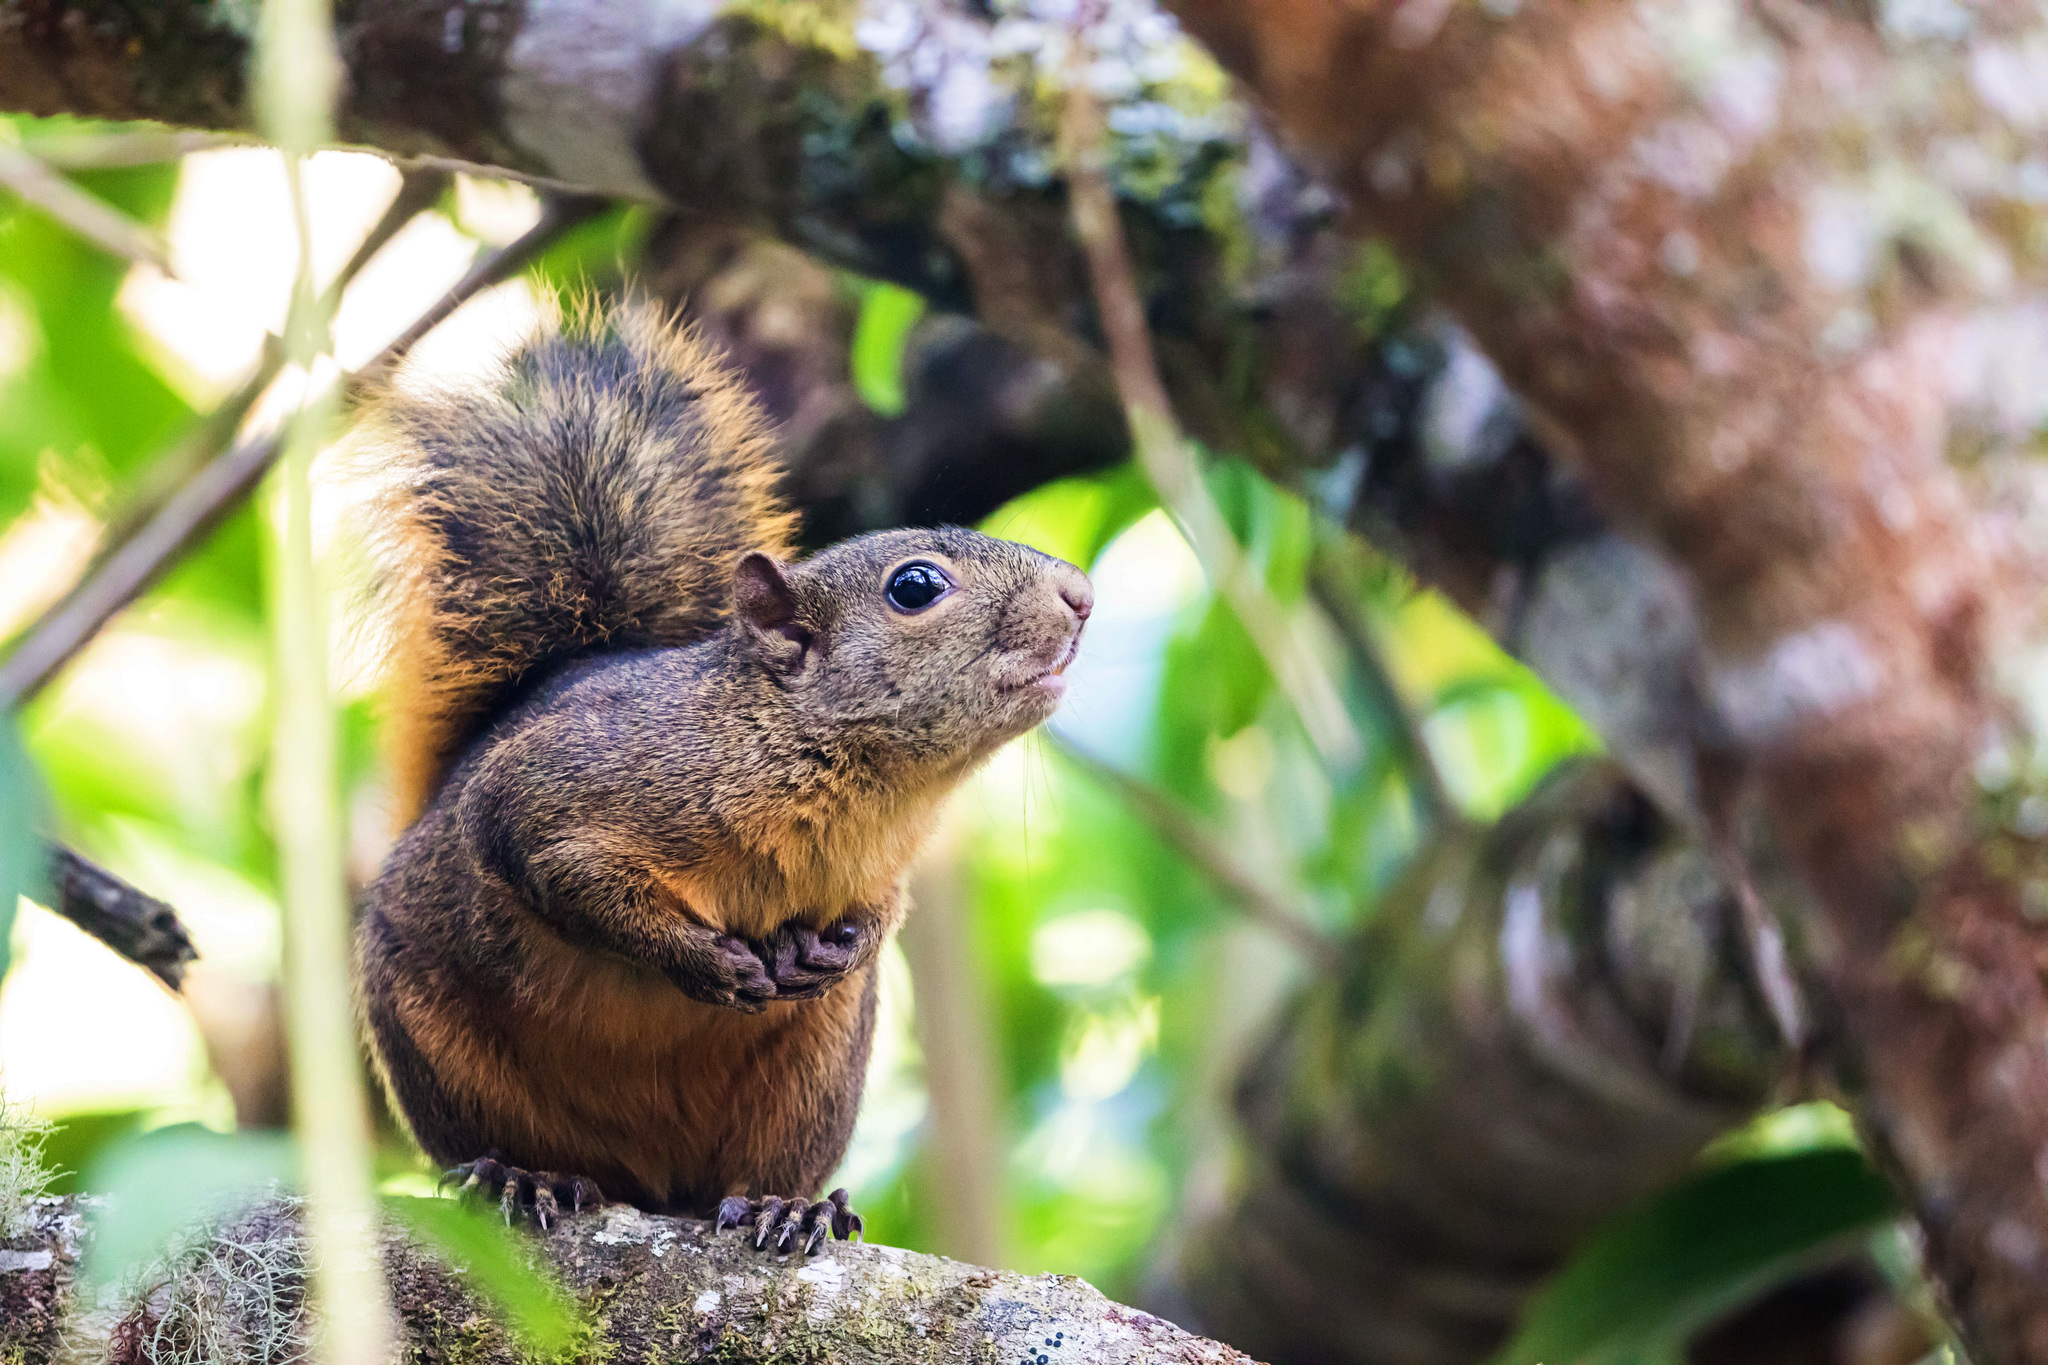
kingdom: Animalia
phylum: Chordata
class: Mammalia
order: Rodentia
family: Sciuridae
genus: Sciurus
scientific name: Sciurus granatensis
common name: Red-tailed squirrel
